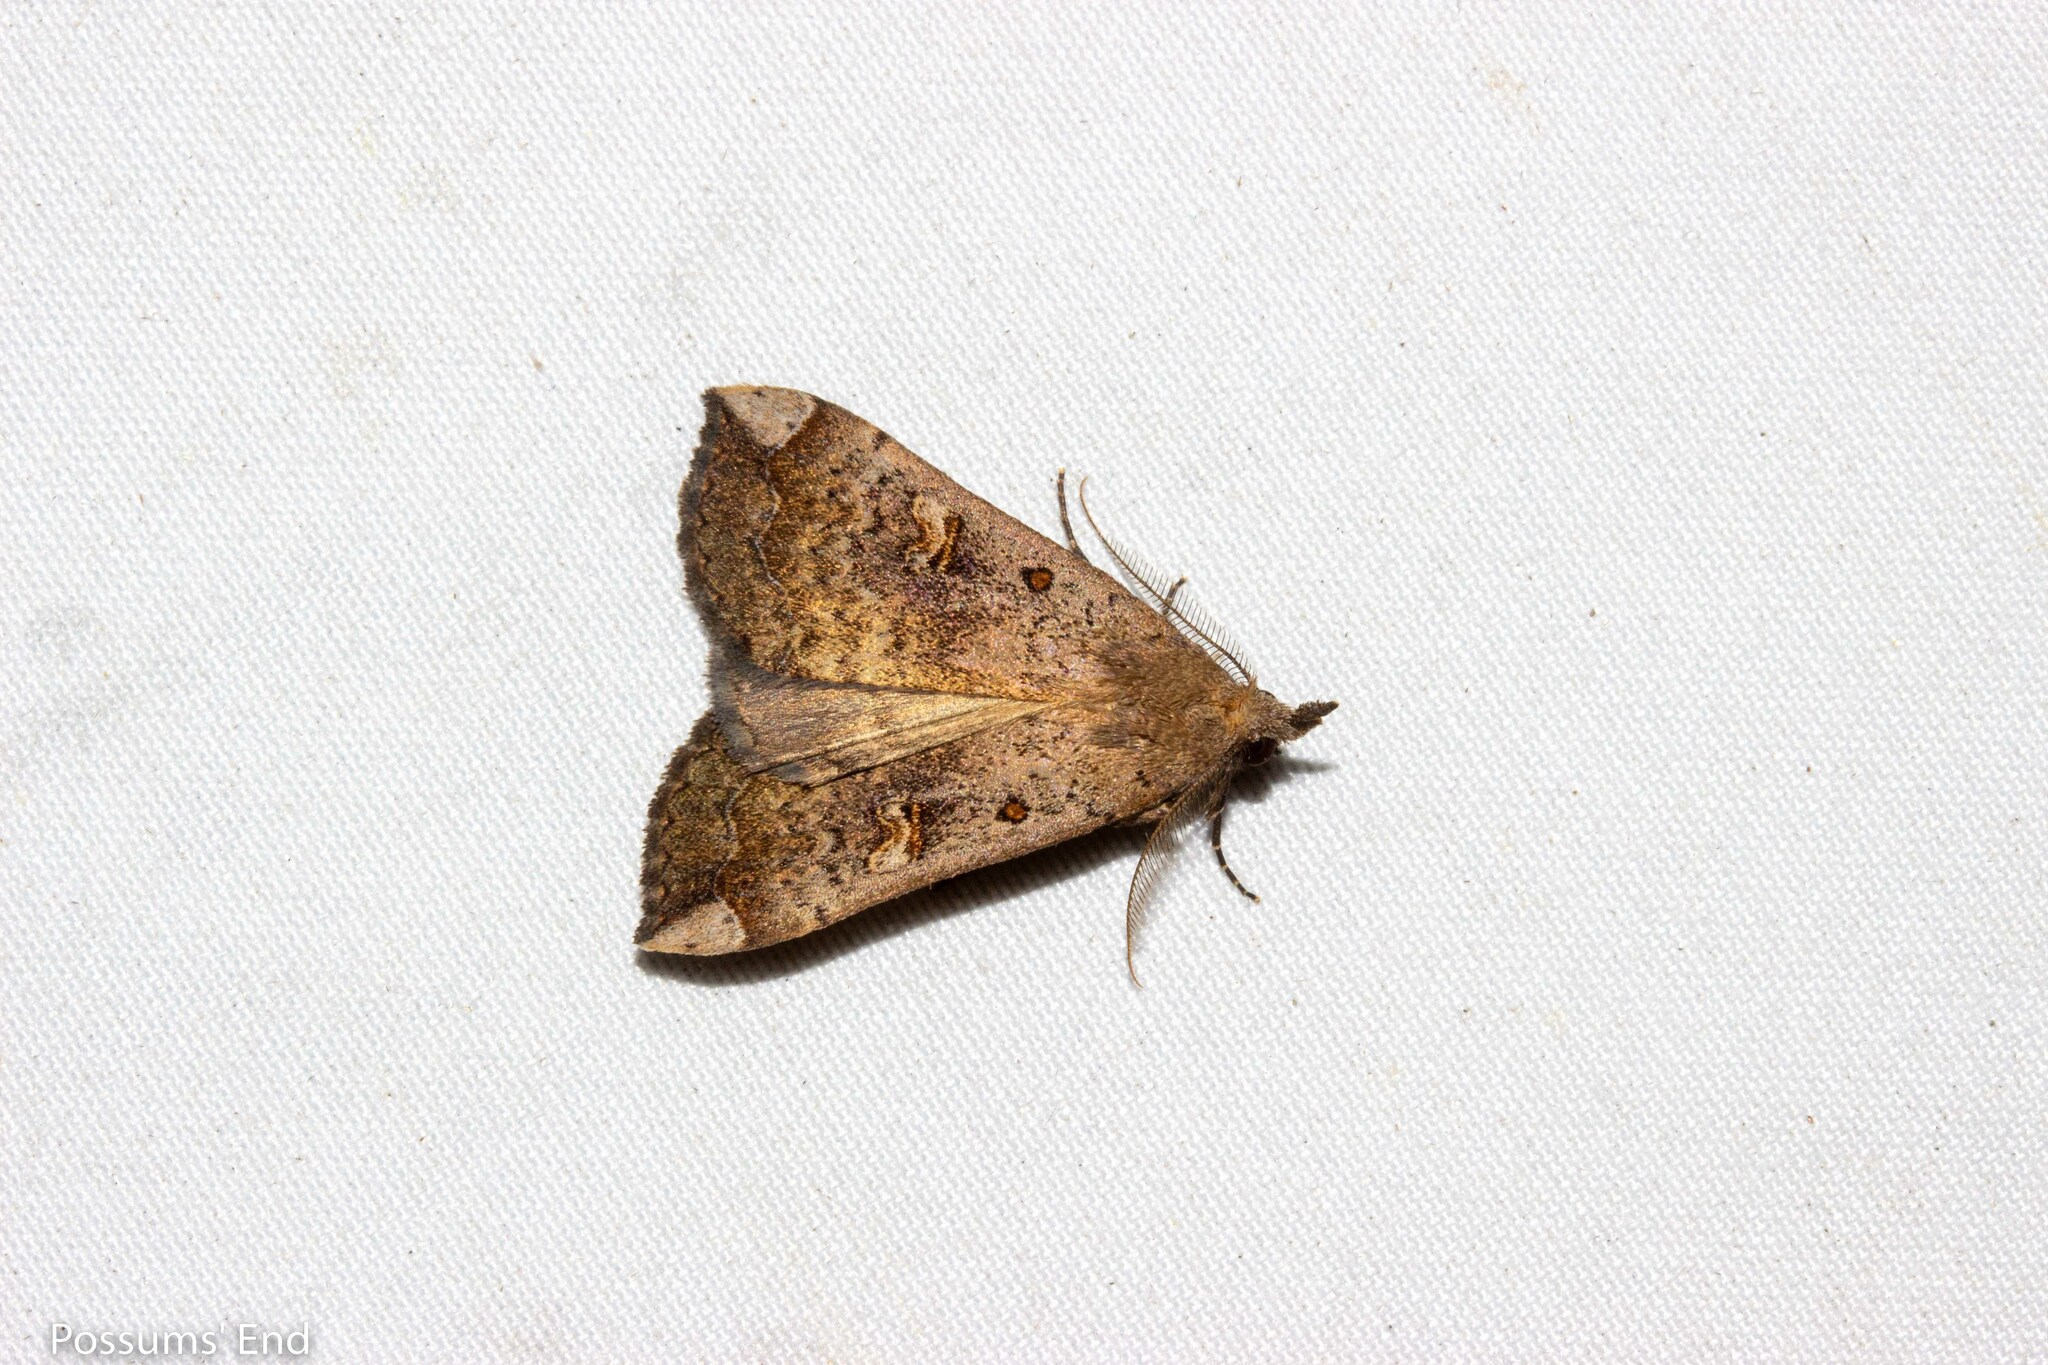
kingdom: Animalia
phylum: Arthropoda
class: Insecta
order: Lepidoptera
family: Erebidae
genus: Rhapsa
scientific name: Rhapsa scotosialis
